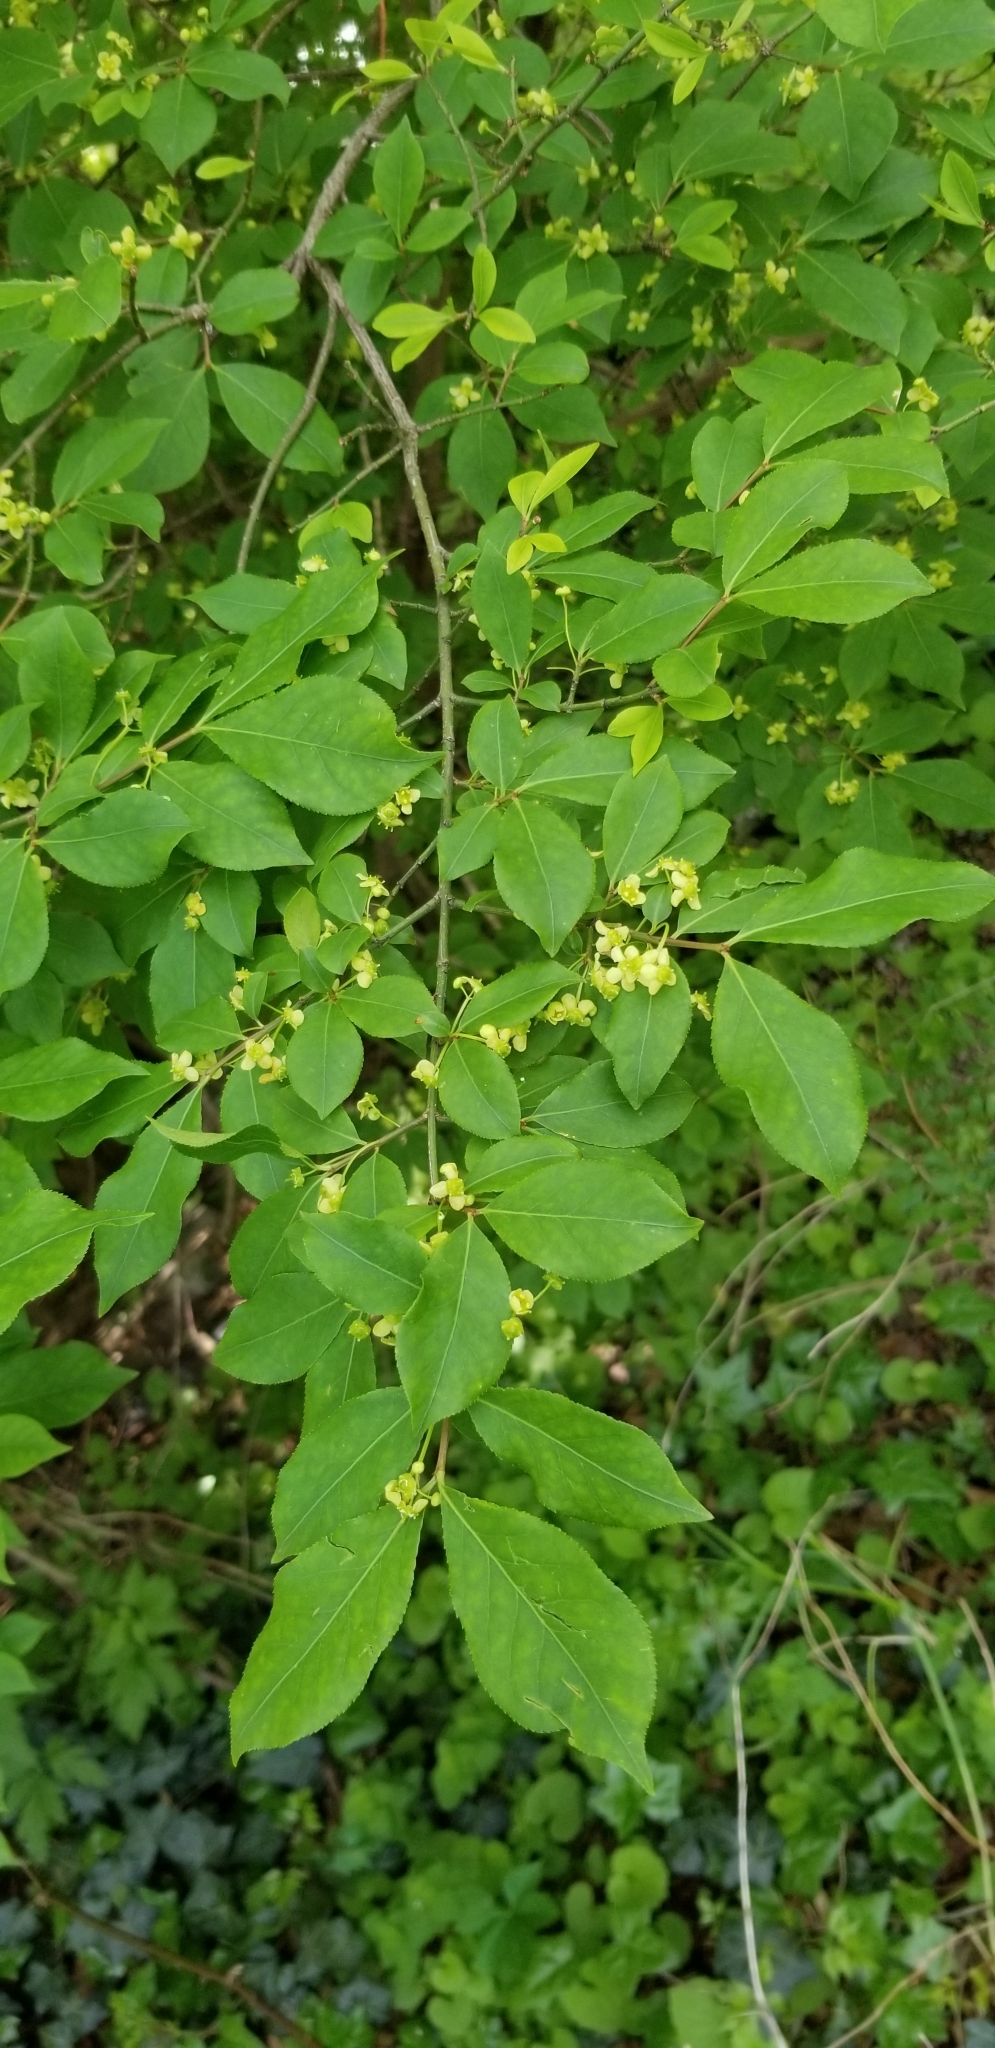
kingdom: Plantae
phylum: Tracheophyta
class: Magnoliopsida
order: Celastrales
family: Celastraceae
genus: Euonymus
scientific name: Euonymus alatus
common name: Winged euonymus
